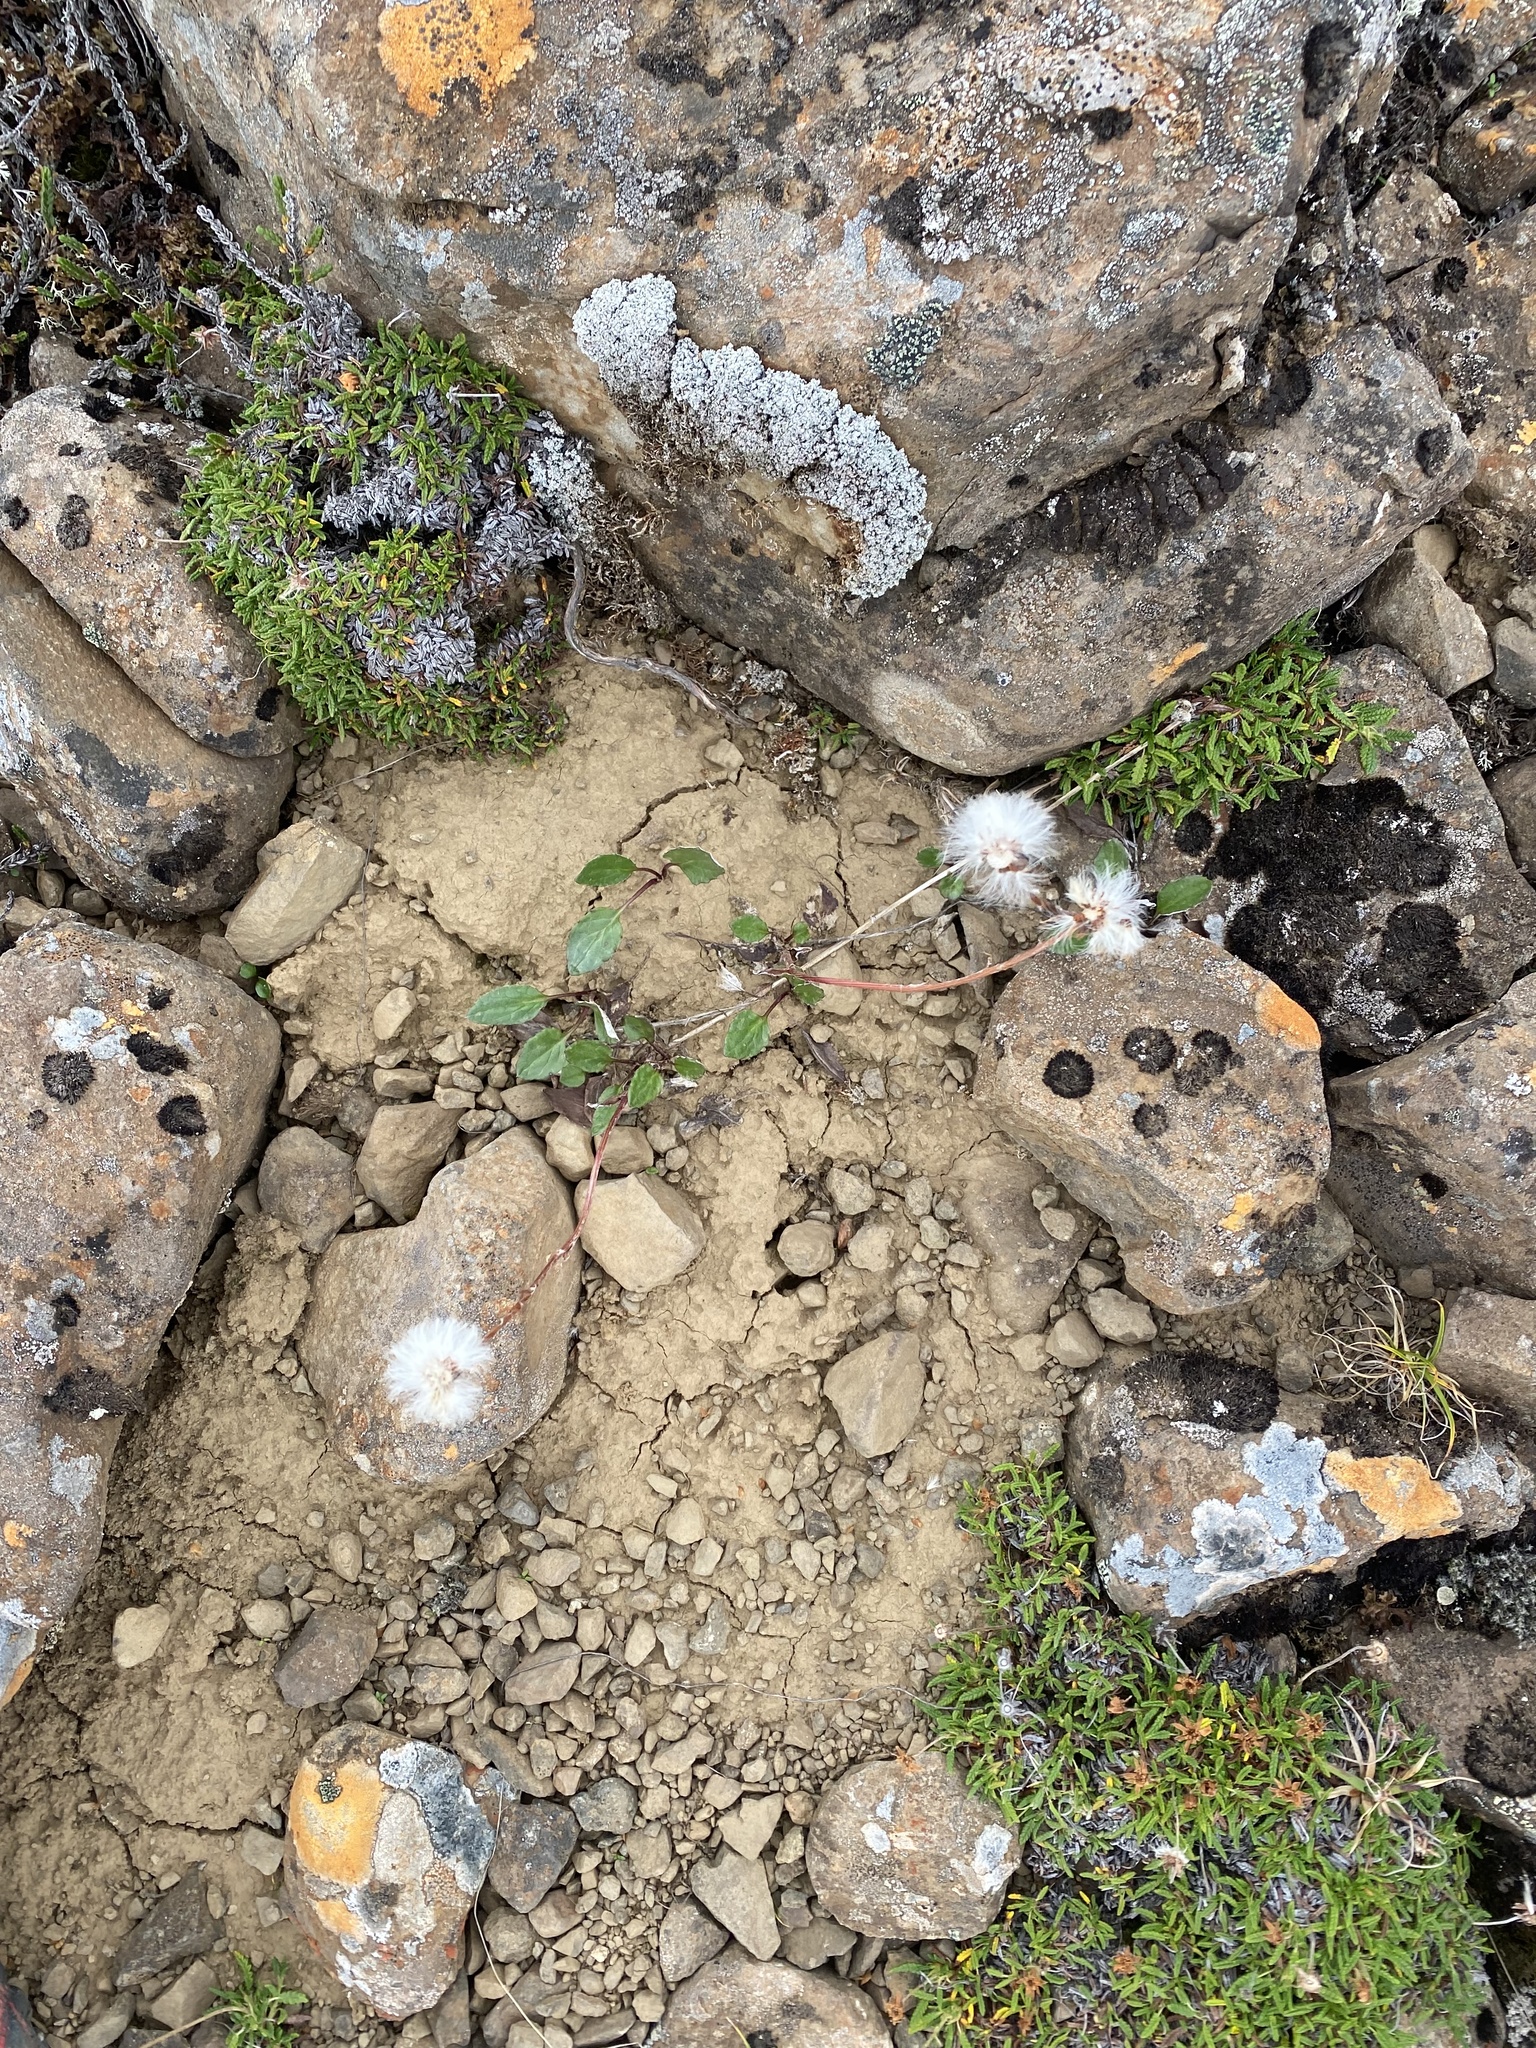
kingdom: Plantae
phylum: Tracheophyta
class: Magnoliopsida
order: Asterales
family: Asteraceae
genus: Endocellion
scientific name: Endocellion sibiricum
